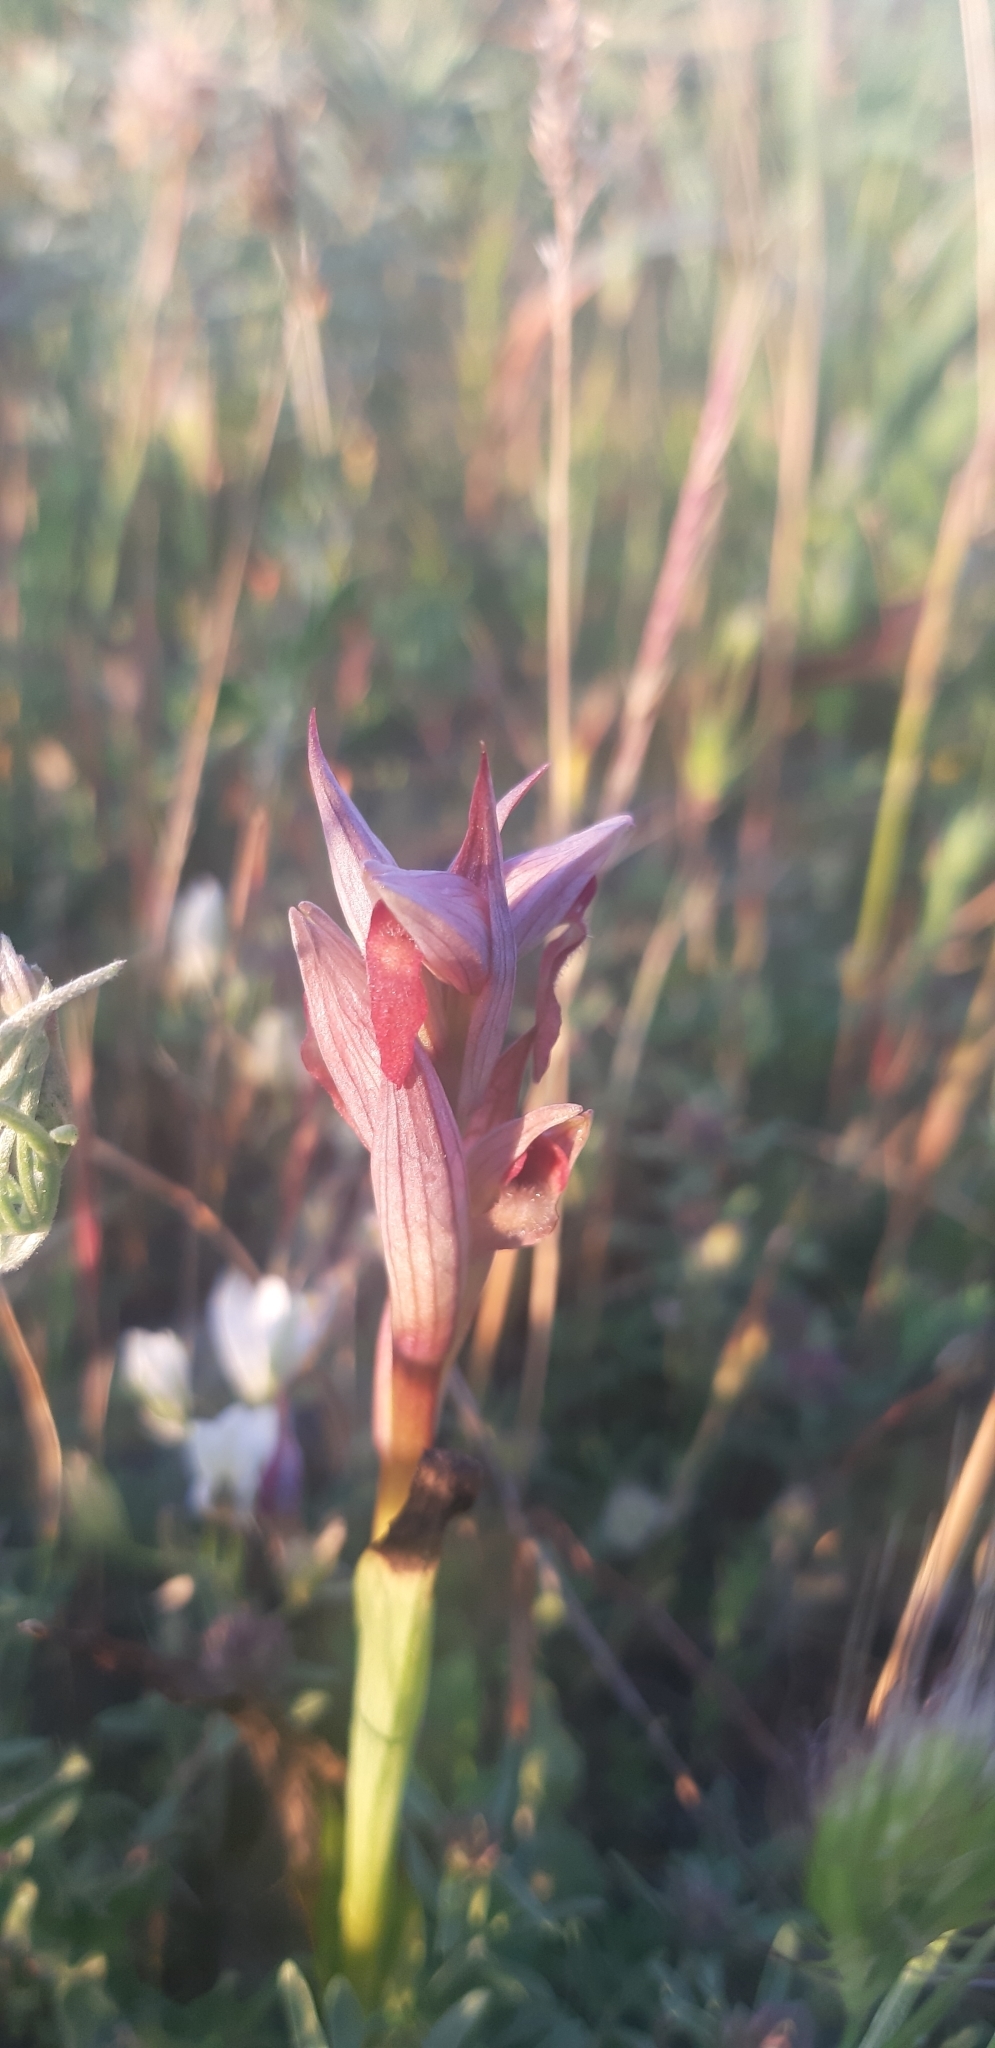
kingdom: Plantae
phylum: Tracheophyta
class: Liliopsida
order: Asparagales
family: Orchidaceae
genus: Serapias
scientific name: Serapias parviflora
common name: Small-flowered tongue-orchid
